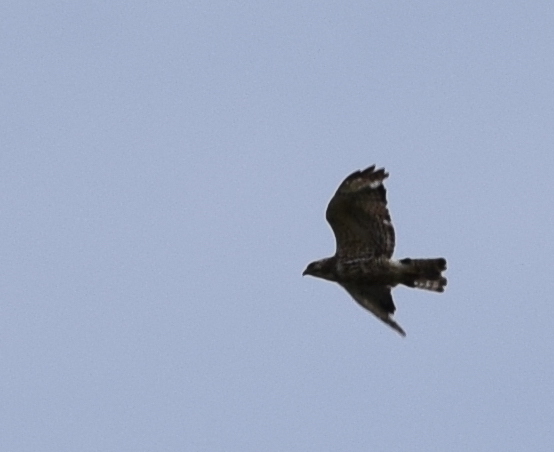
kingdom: Animalia
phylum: Chordata
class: Aves
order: Accipitriformes
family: Accipitridae
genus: Buteo
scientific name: Buteo platypterus
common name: Broad-winged hawk
